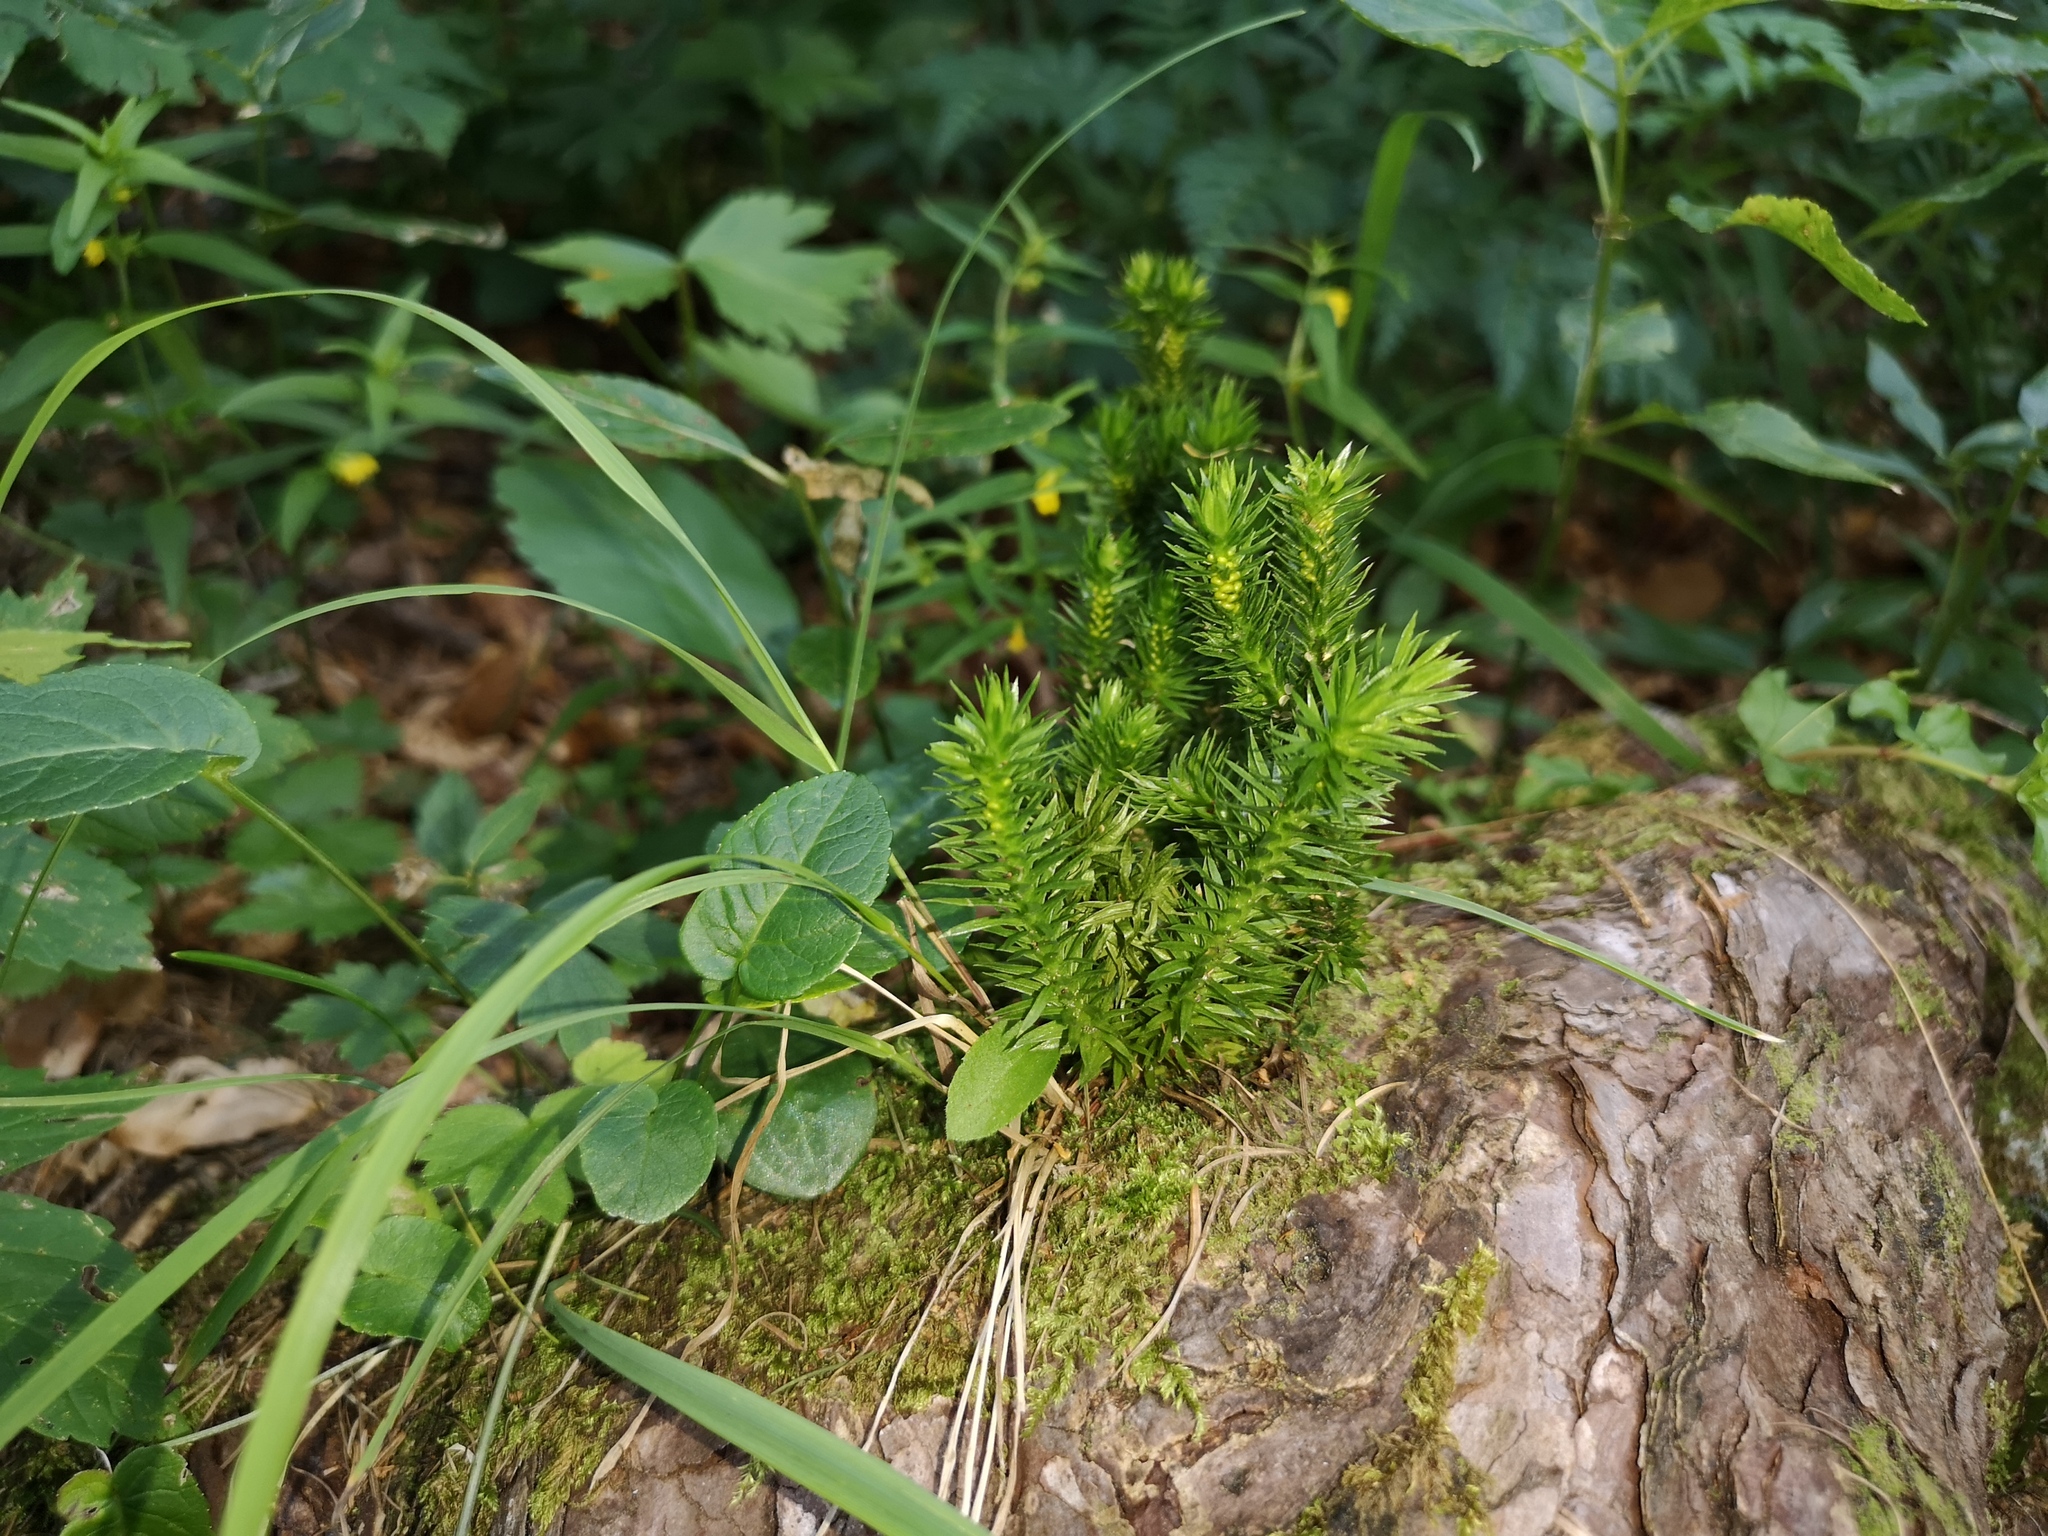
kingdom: Plantae
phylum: Tracheophyta
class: Lycopodiopsida
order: Lycopodiales
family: Lycopodiaceae
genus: Huperzia
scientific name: Huperzia selago
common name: Northern firmoss
